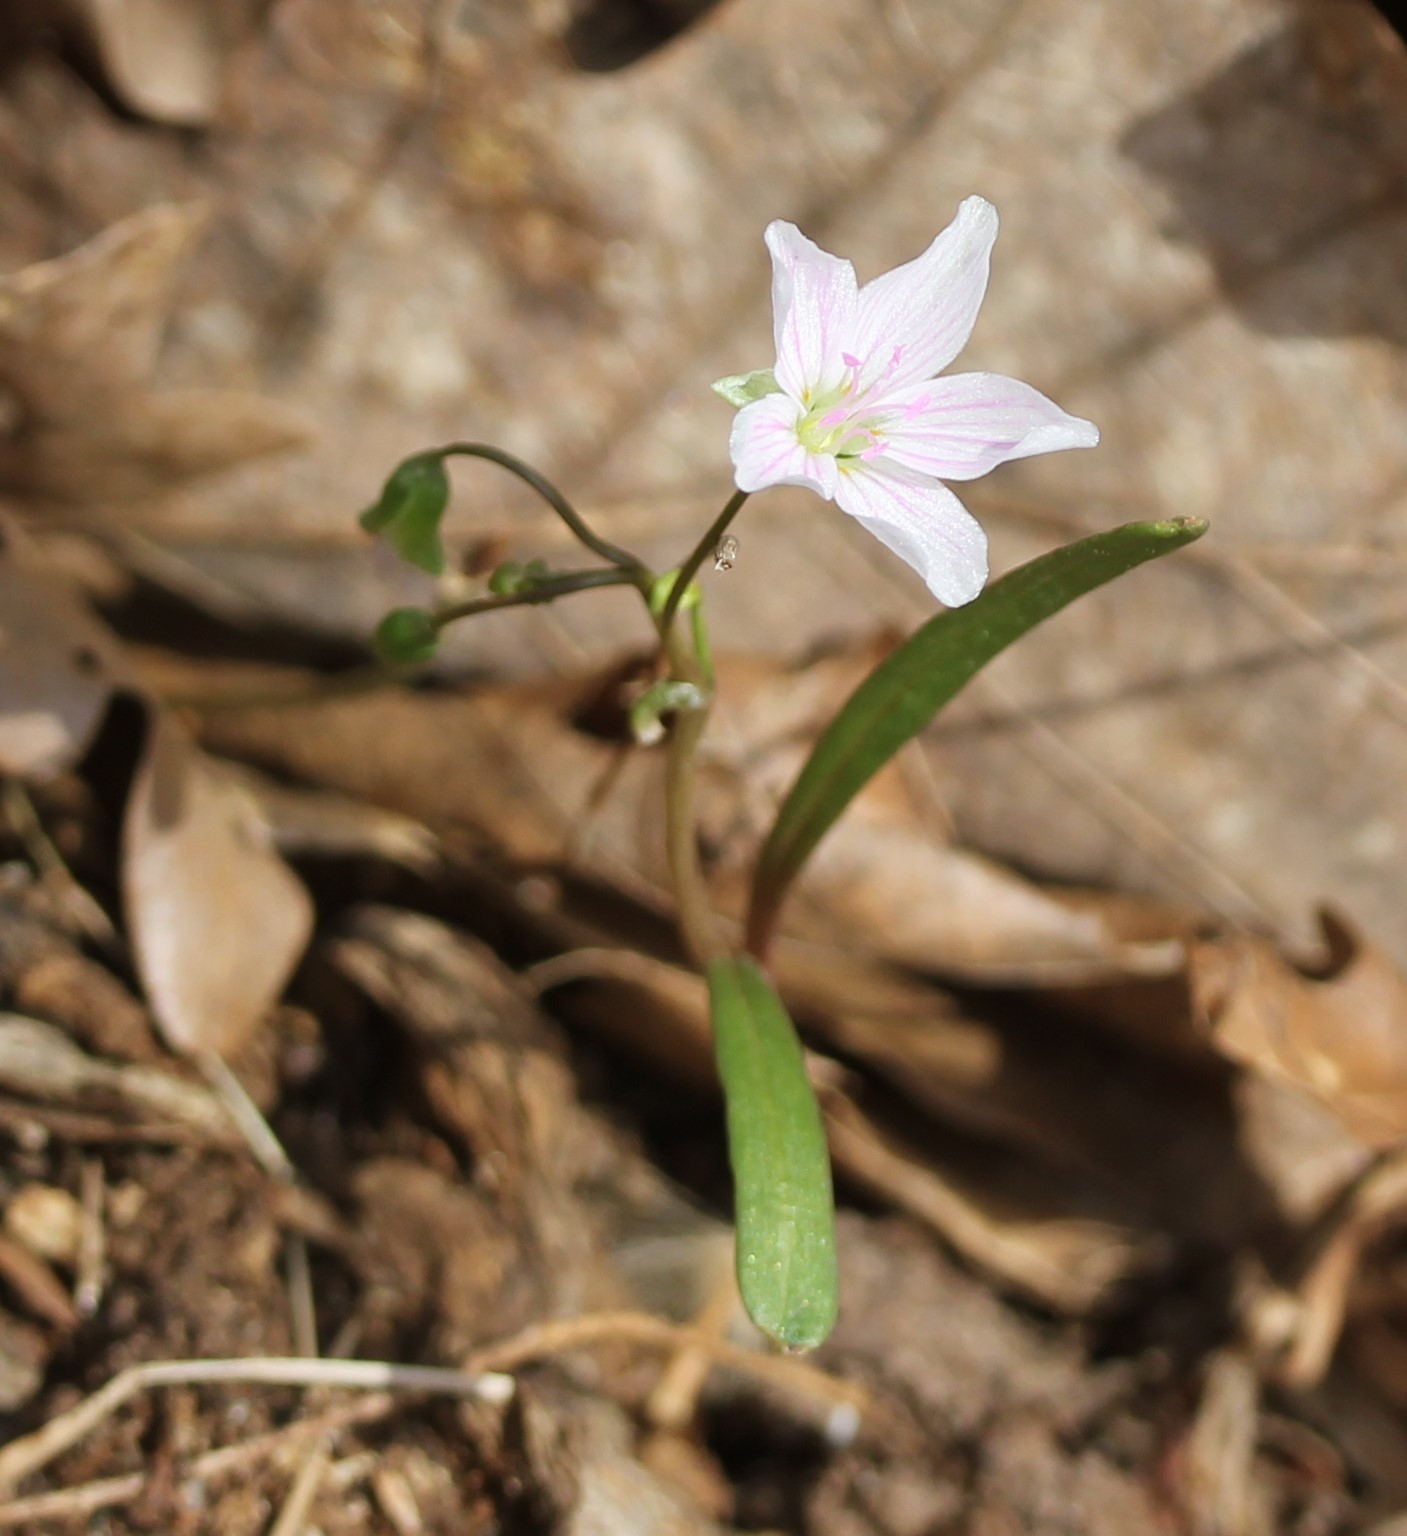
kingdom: Plantae
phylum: Tracheophyta
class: Magnoliopsida
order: Caryophyllales
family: Montiaceae
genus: Claytonia
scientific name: Claytonia virginica
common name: Virginia springbeauty
